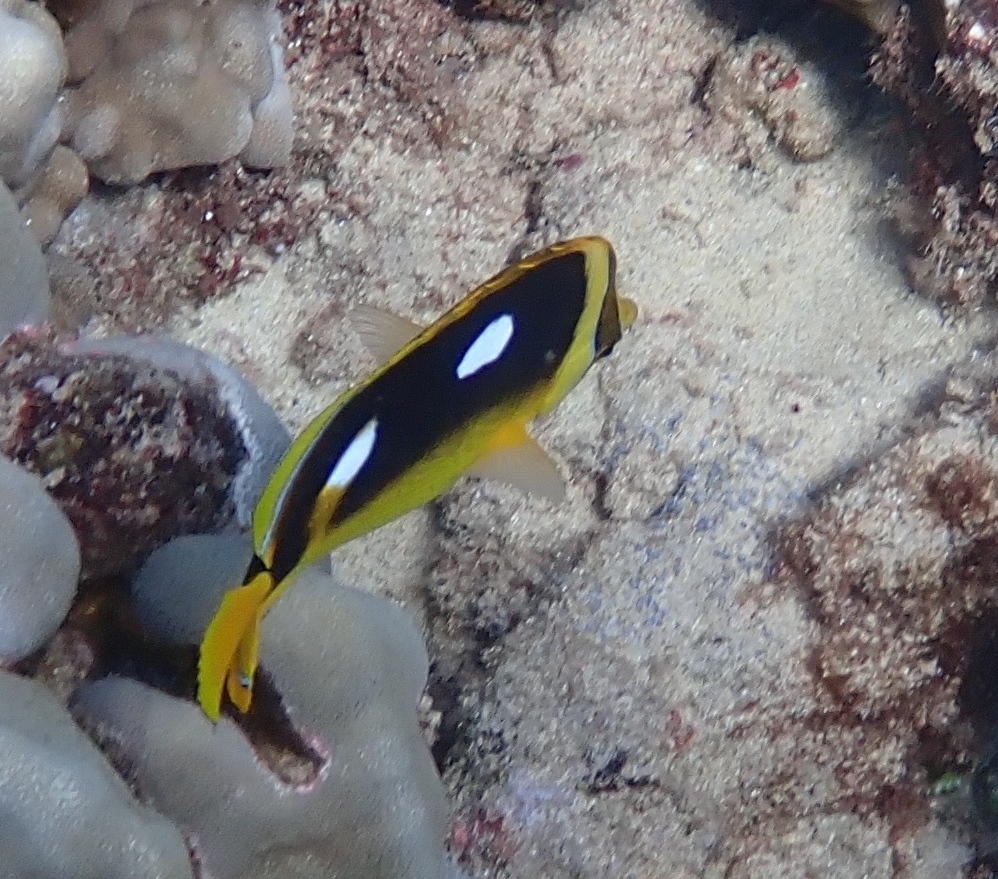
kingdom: Animalia
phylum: Chordata
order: Perciformes
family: Chaetodontidae
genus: Chaetodon
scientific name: Chaetodon quadrimaculatus
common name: Fourspot butterflyfish
